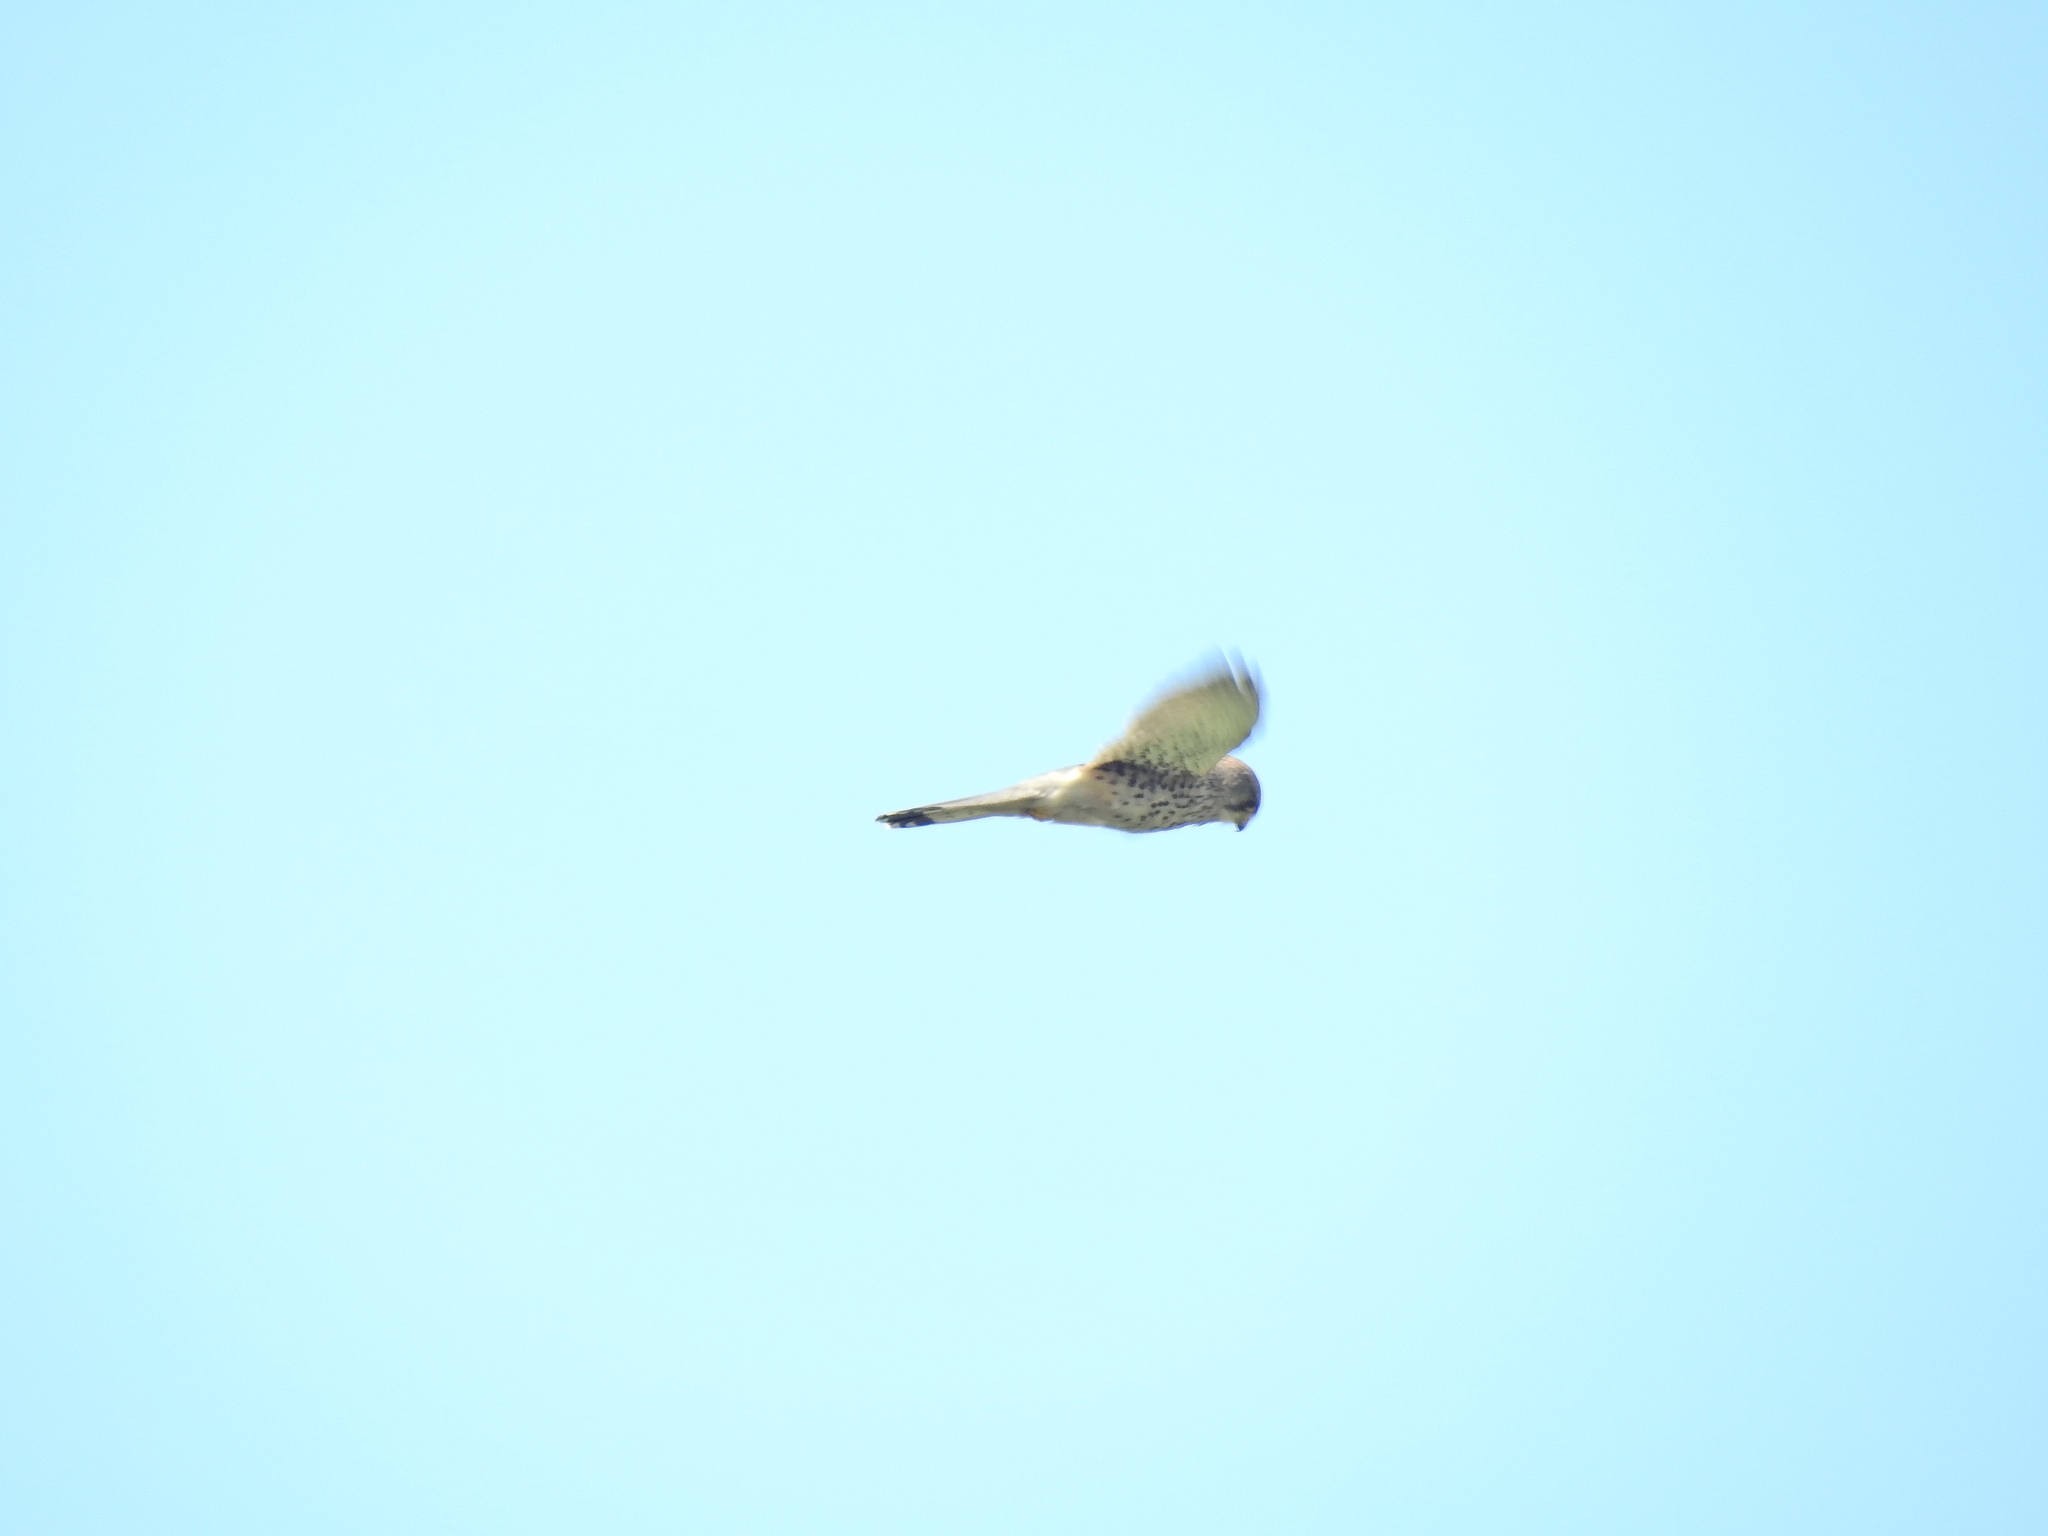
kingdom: Animalia
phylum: Chordata
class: Aves
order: Falconiformes
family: Falconidae
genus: Falco
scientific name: Falco tinnunculus
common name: Common kestrel
